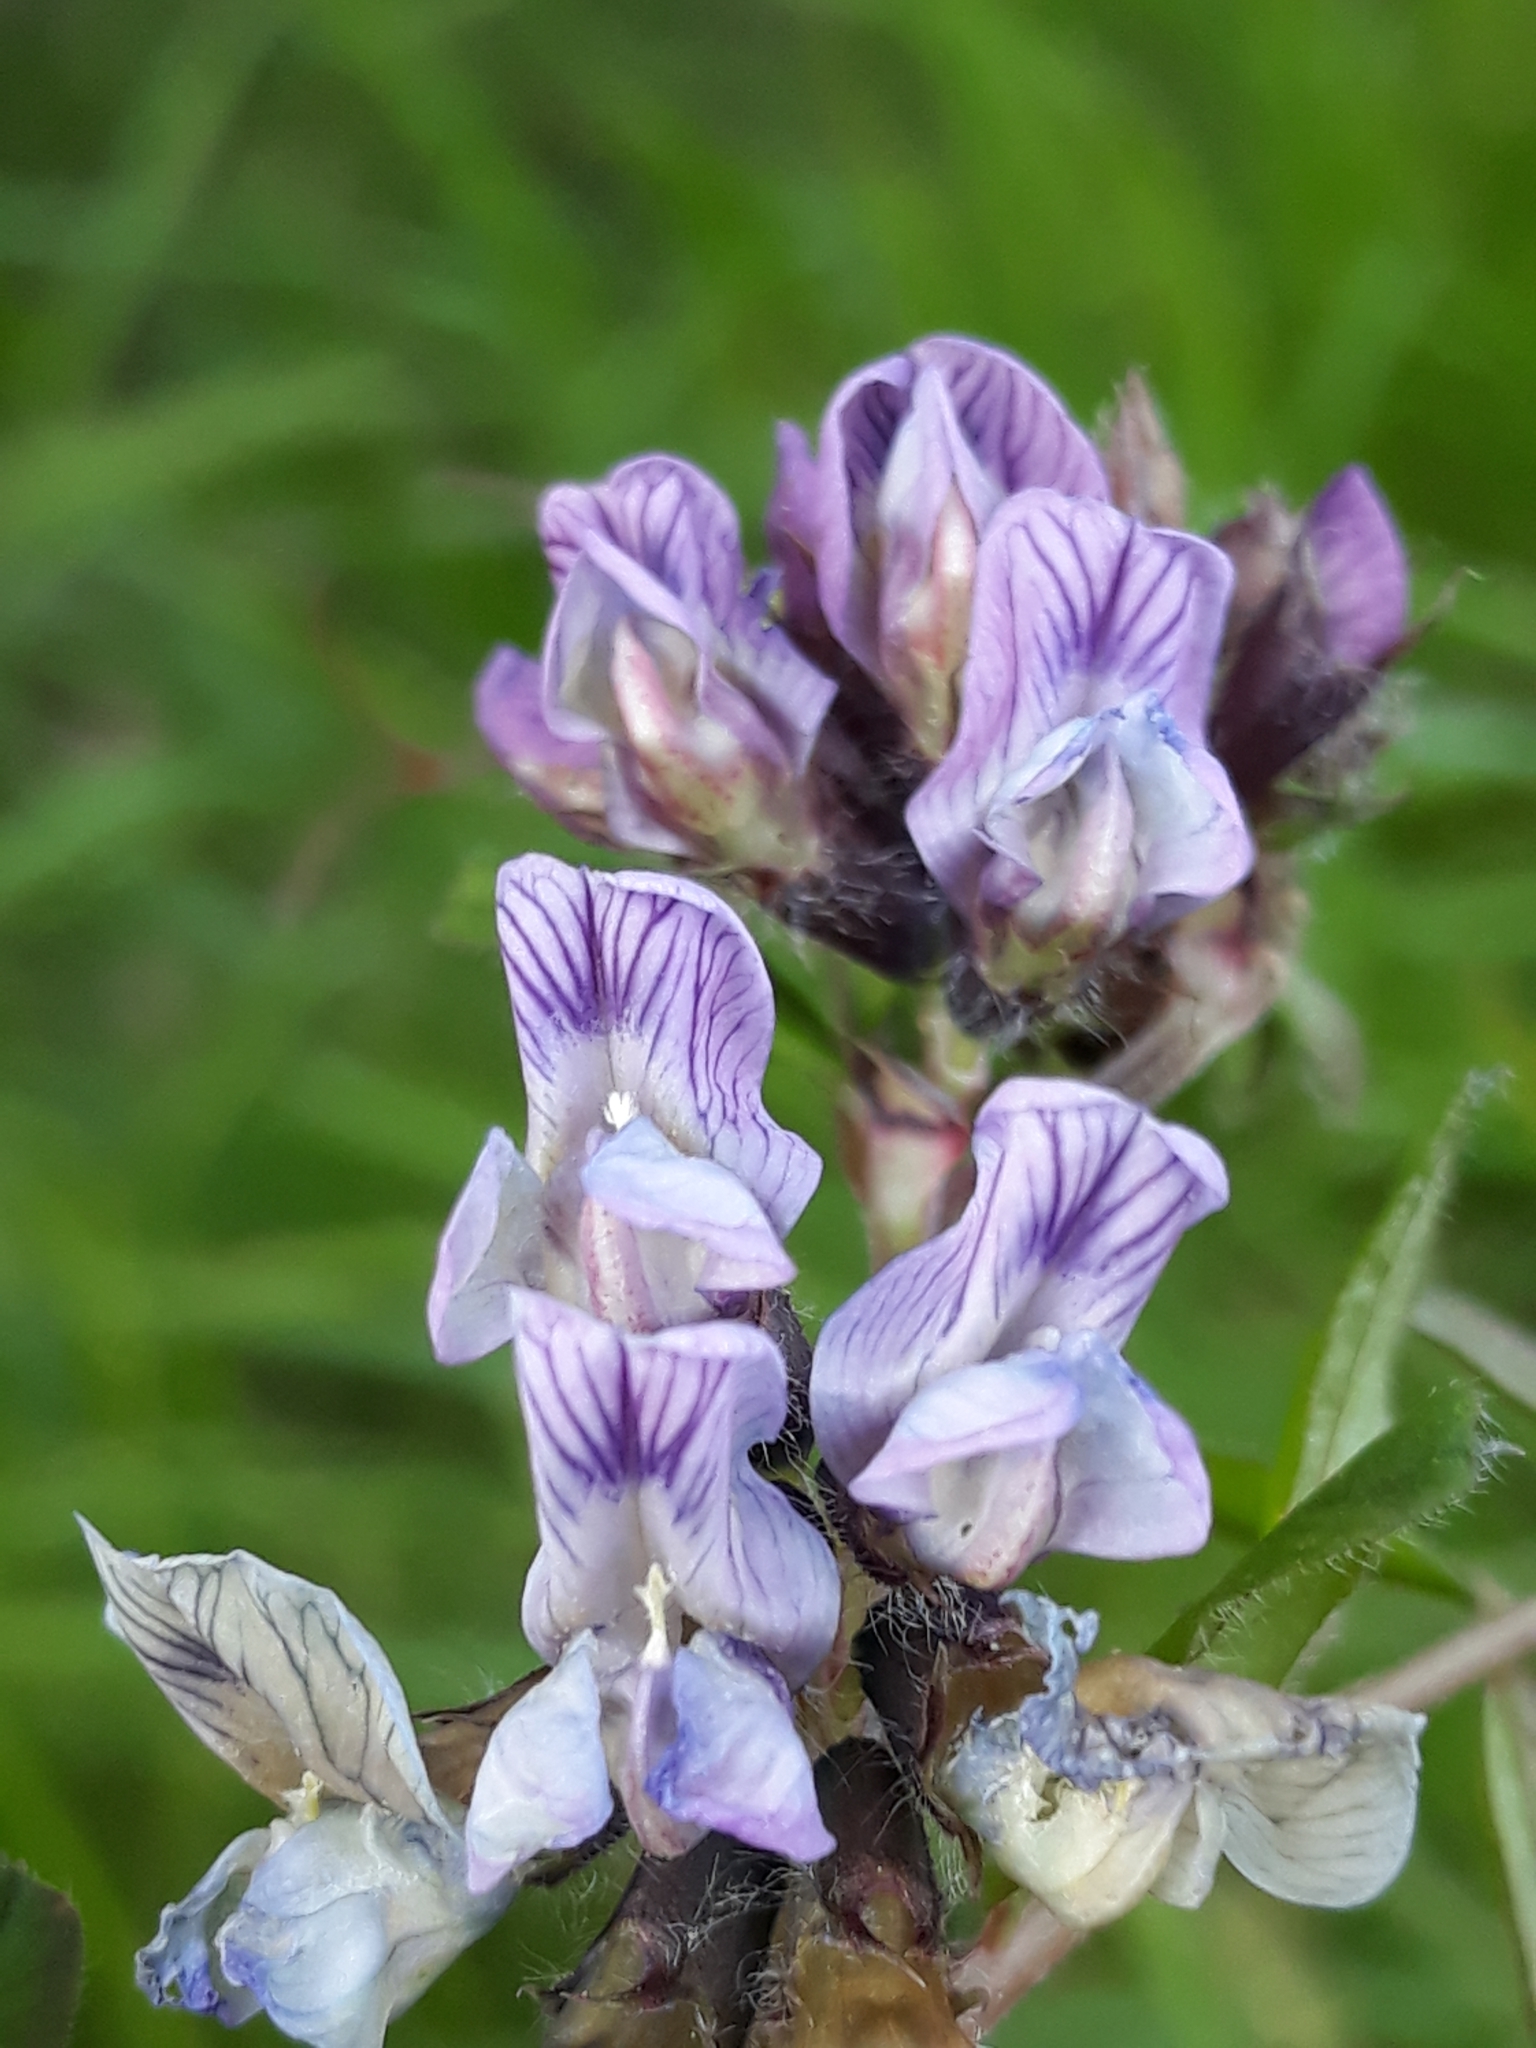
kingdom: Plantae
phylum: Tracheophyta
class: Magnoliopsida
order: Fabales
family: Fabaceae
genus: Vicia
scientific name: Vicia sepium
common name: Bush vetch
